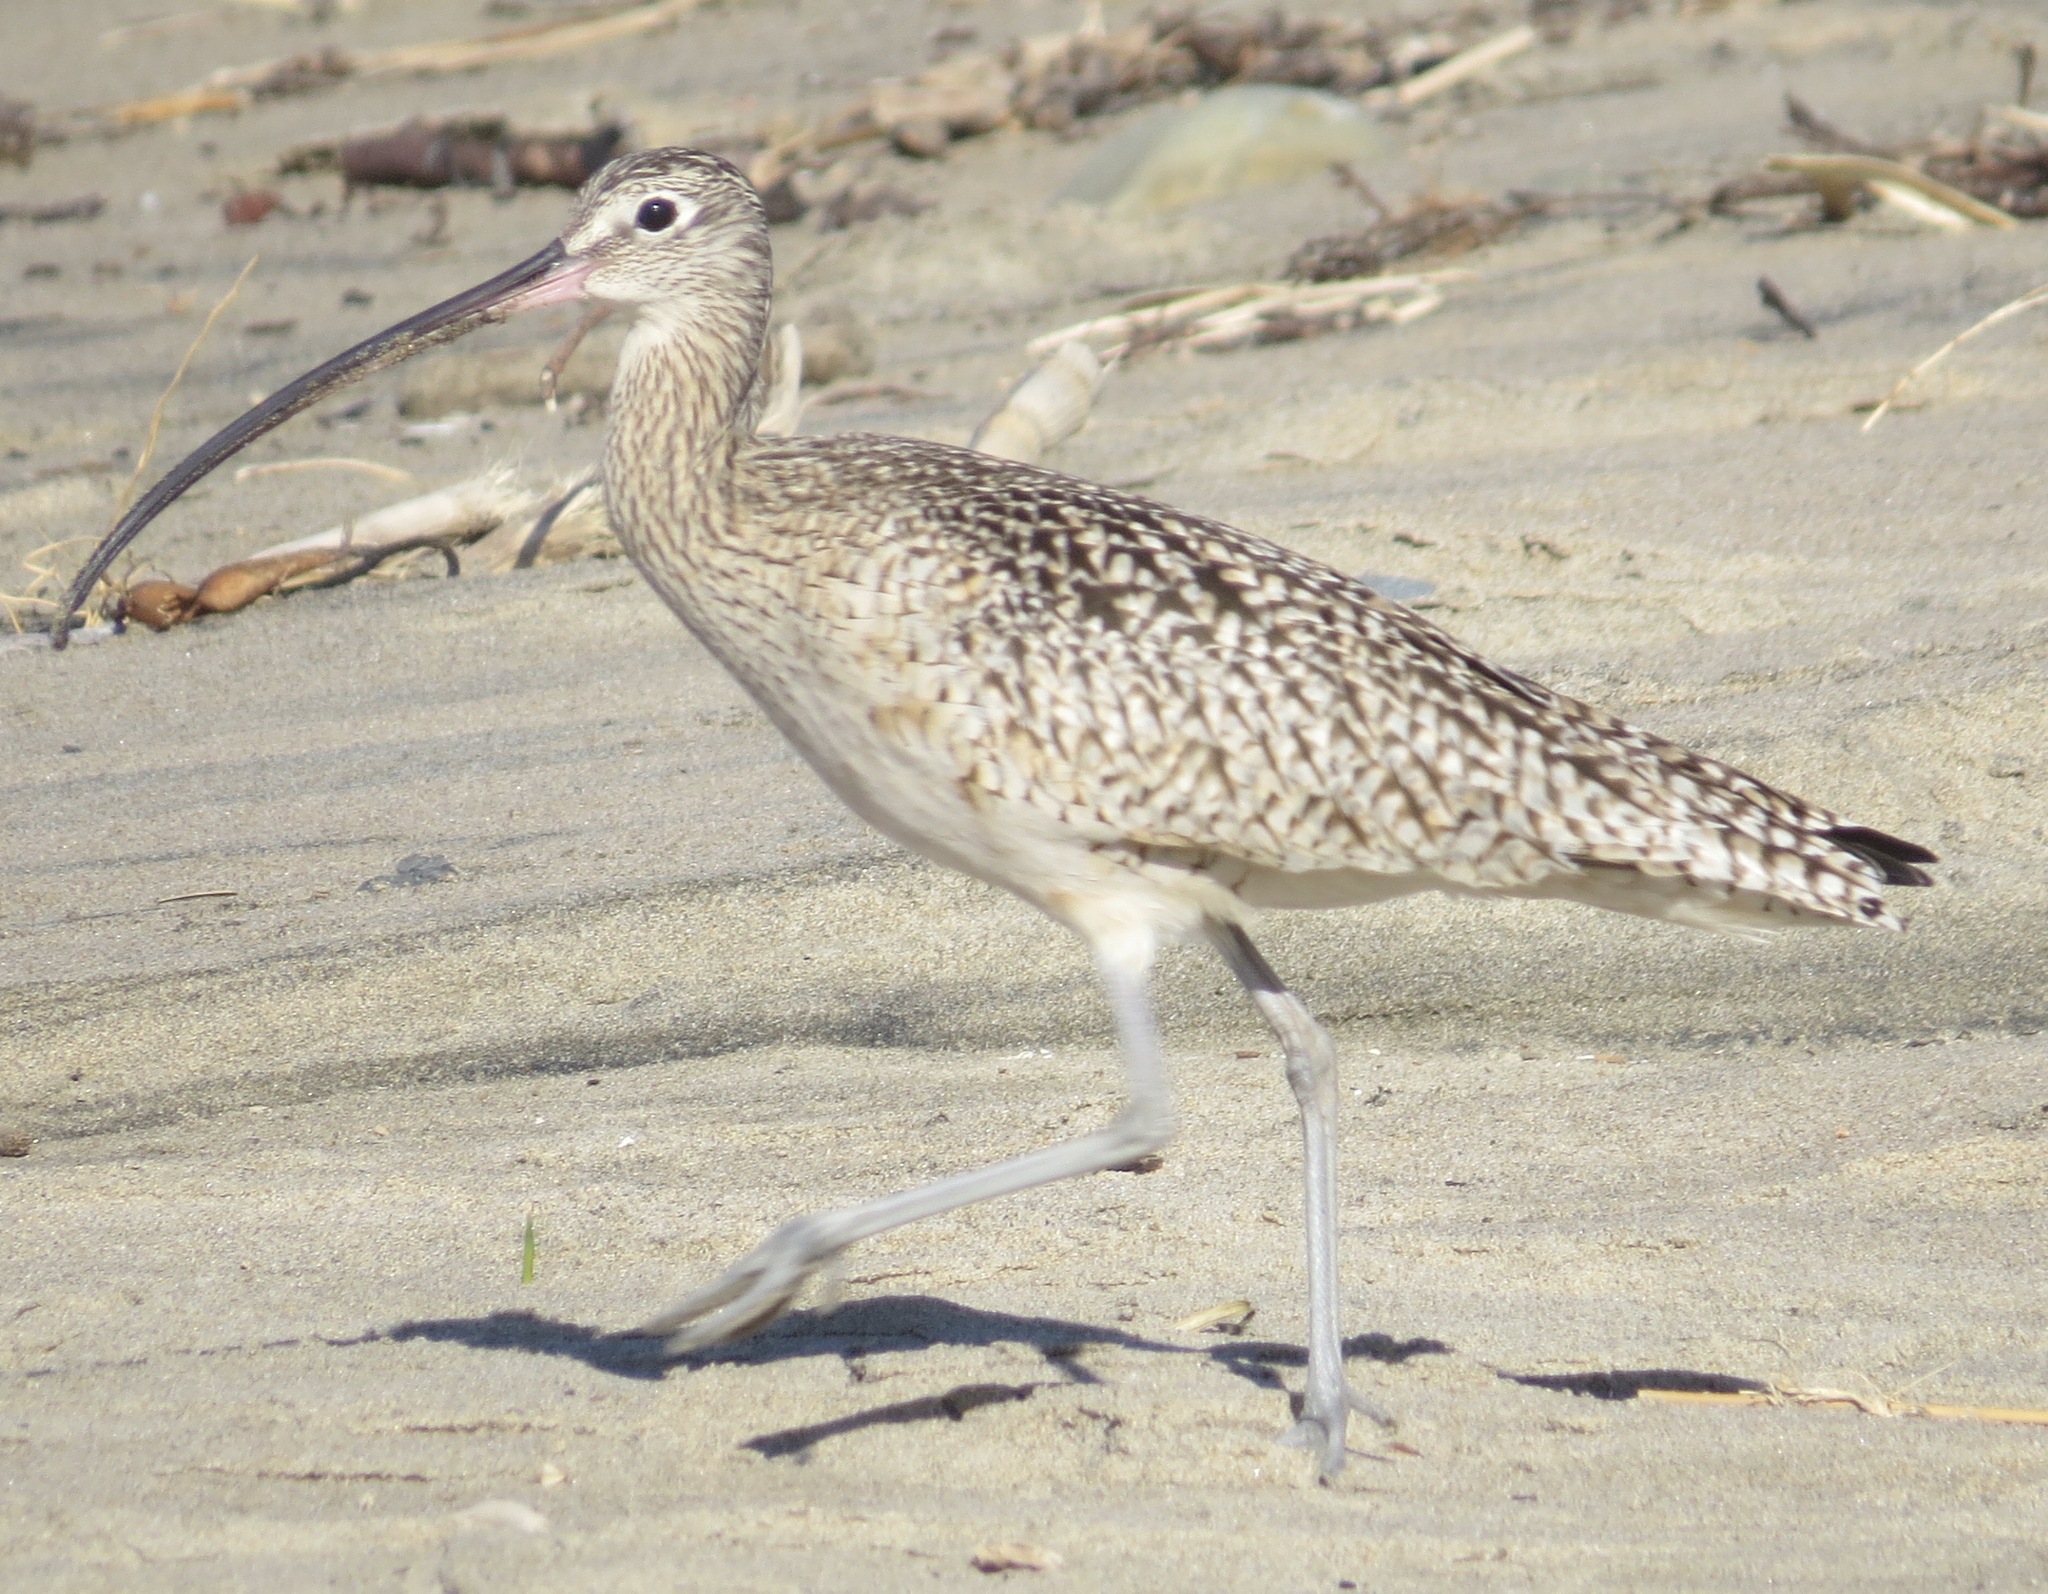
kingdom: Animalia
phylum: Chordata
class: Aves
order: Charadriiformes
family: Scolopacidae
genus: Numenius
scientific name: Numenius americanus
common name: Long-billed curlew
